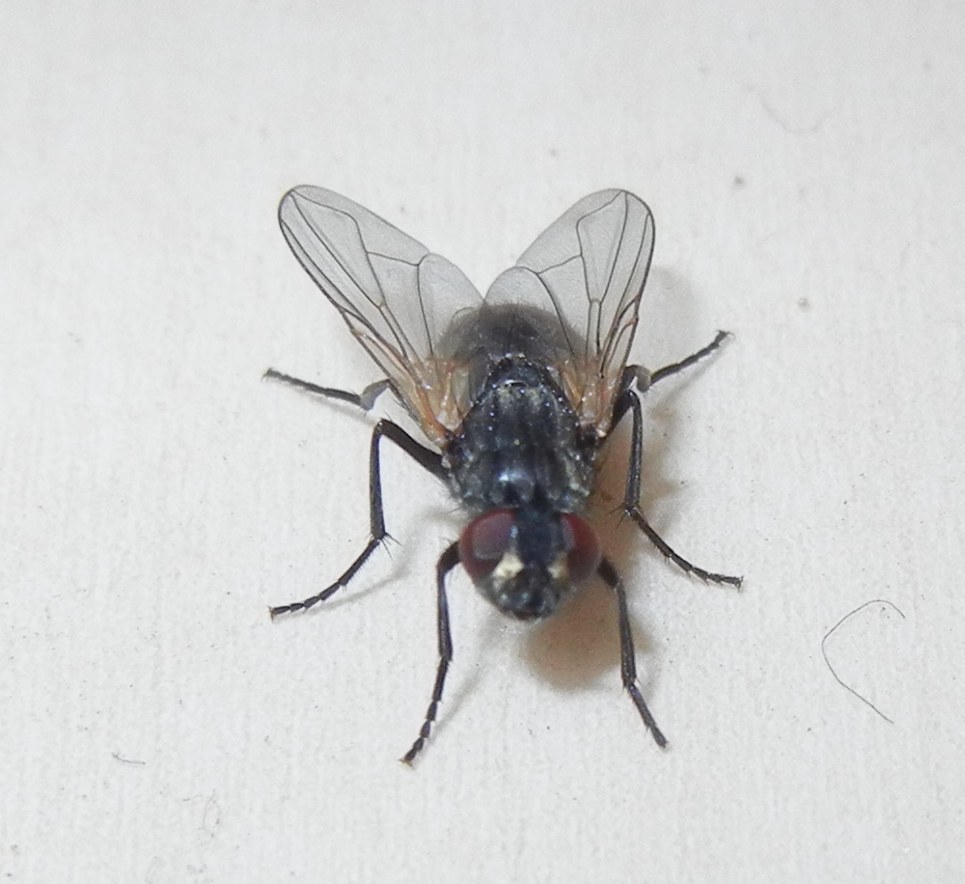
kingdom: Animalia
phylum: Arthropoda
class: Insecta
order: Diptera
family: Muscidae
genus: Musca
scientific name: Musca domestica
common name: House fly
